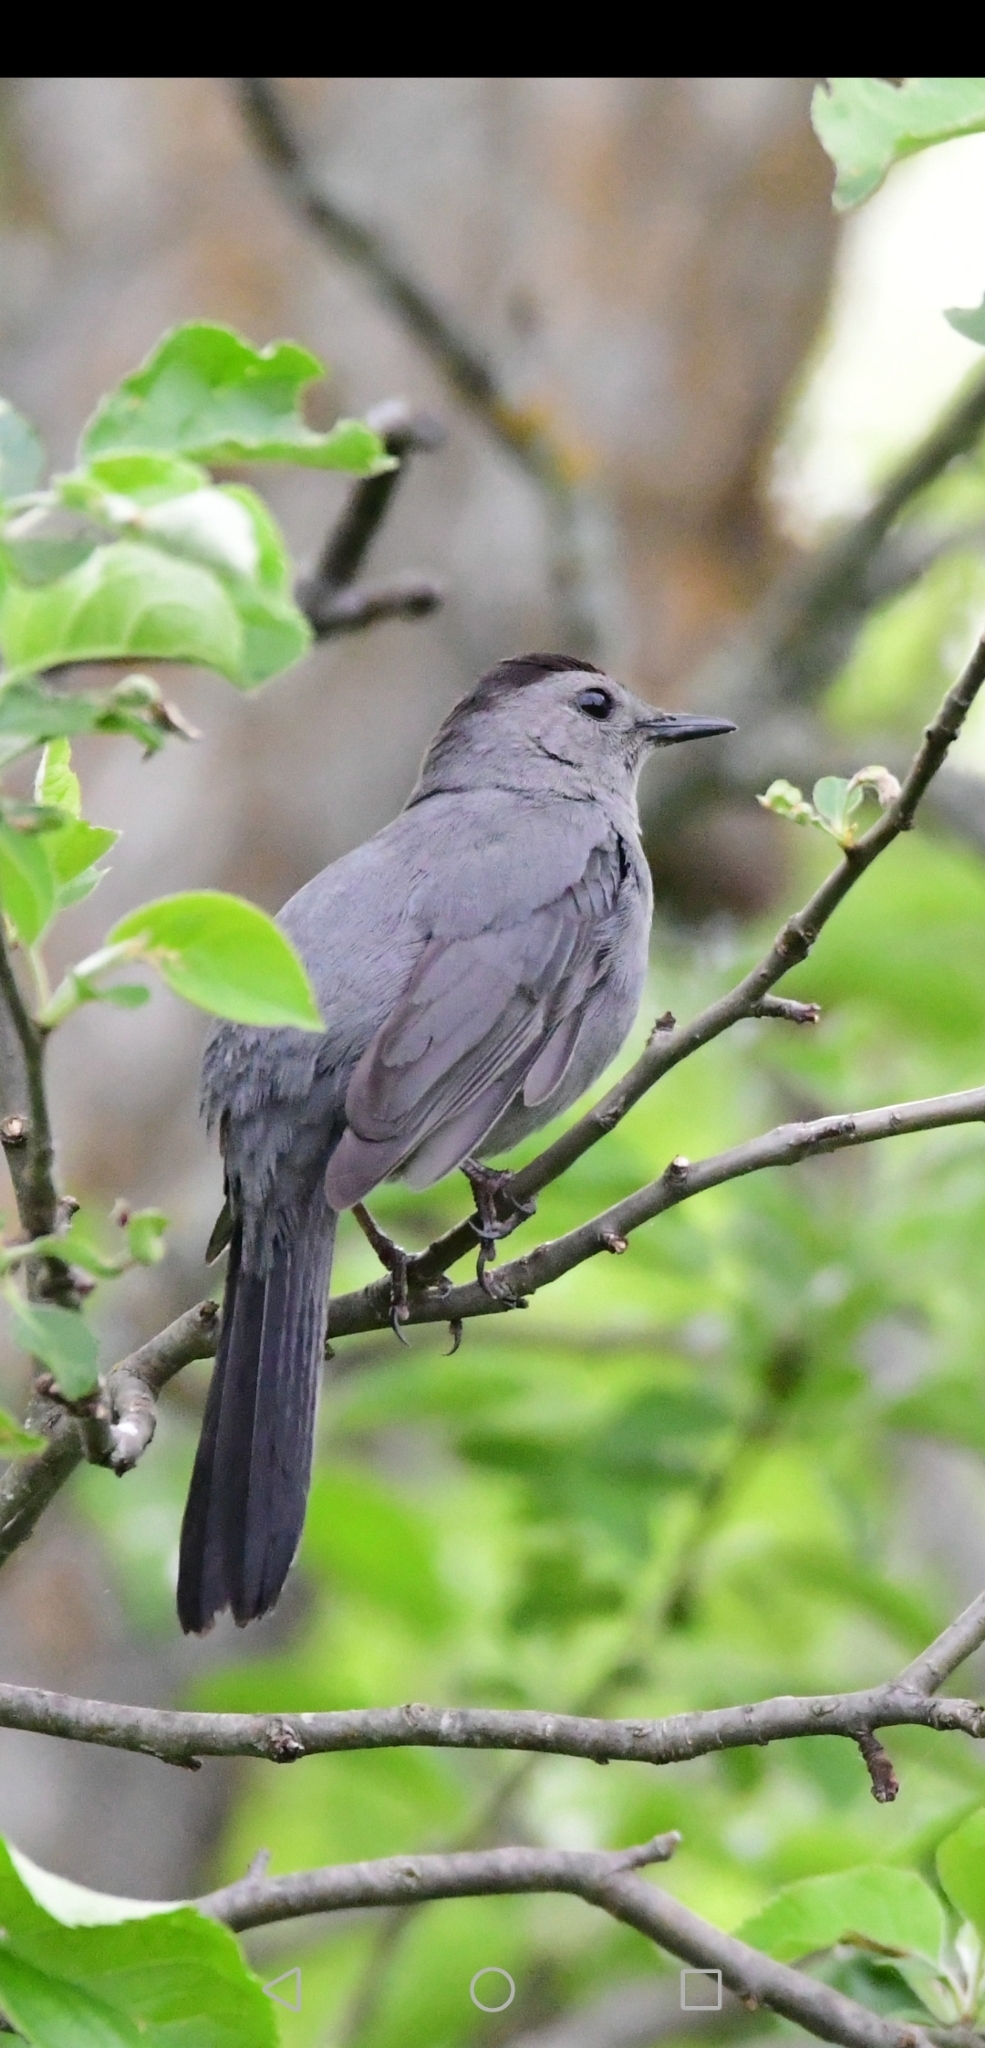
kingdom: Animalia
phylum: Chordata
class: Aves
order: Passeriformes
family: Mimidae
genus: Dumetella
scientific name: Dumetella carolinensis
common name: Gray catbird
